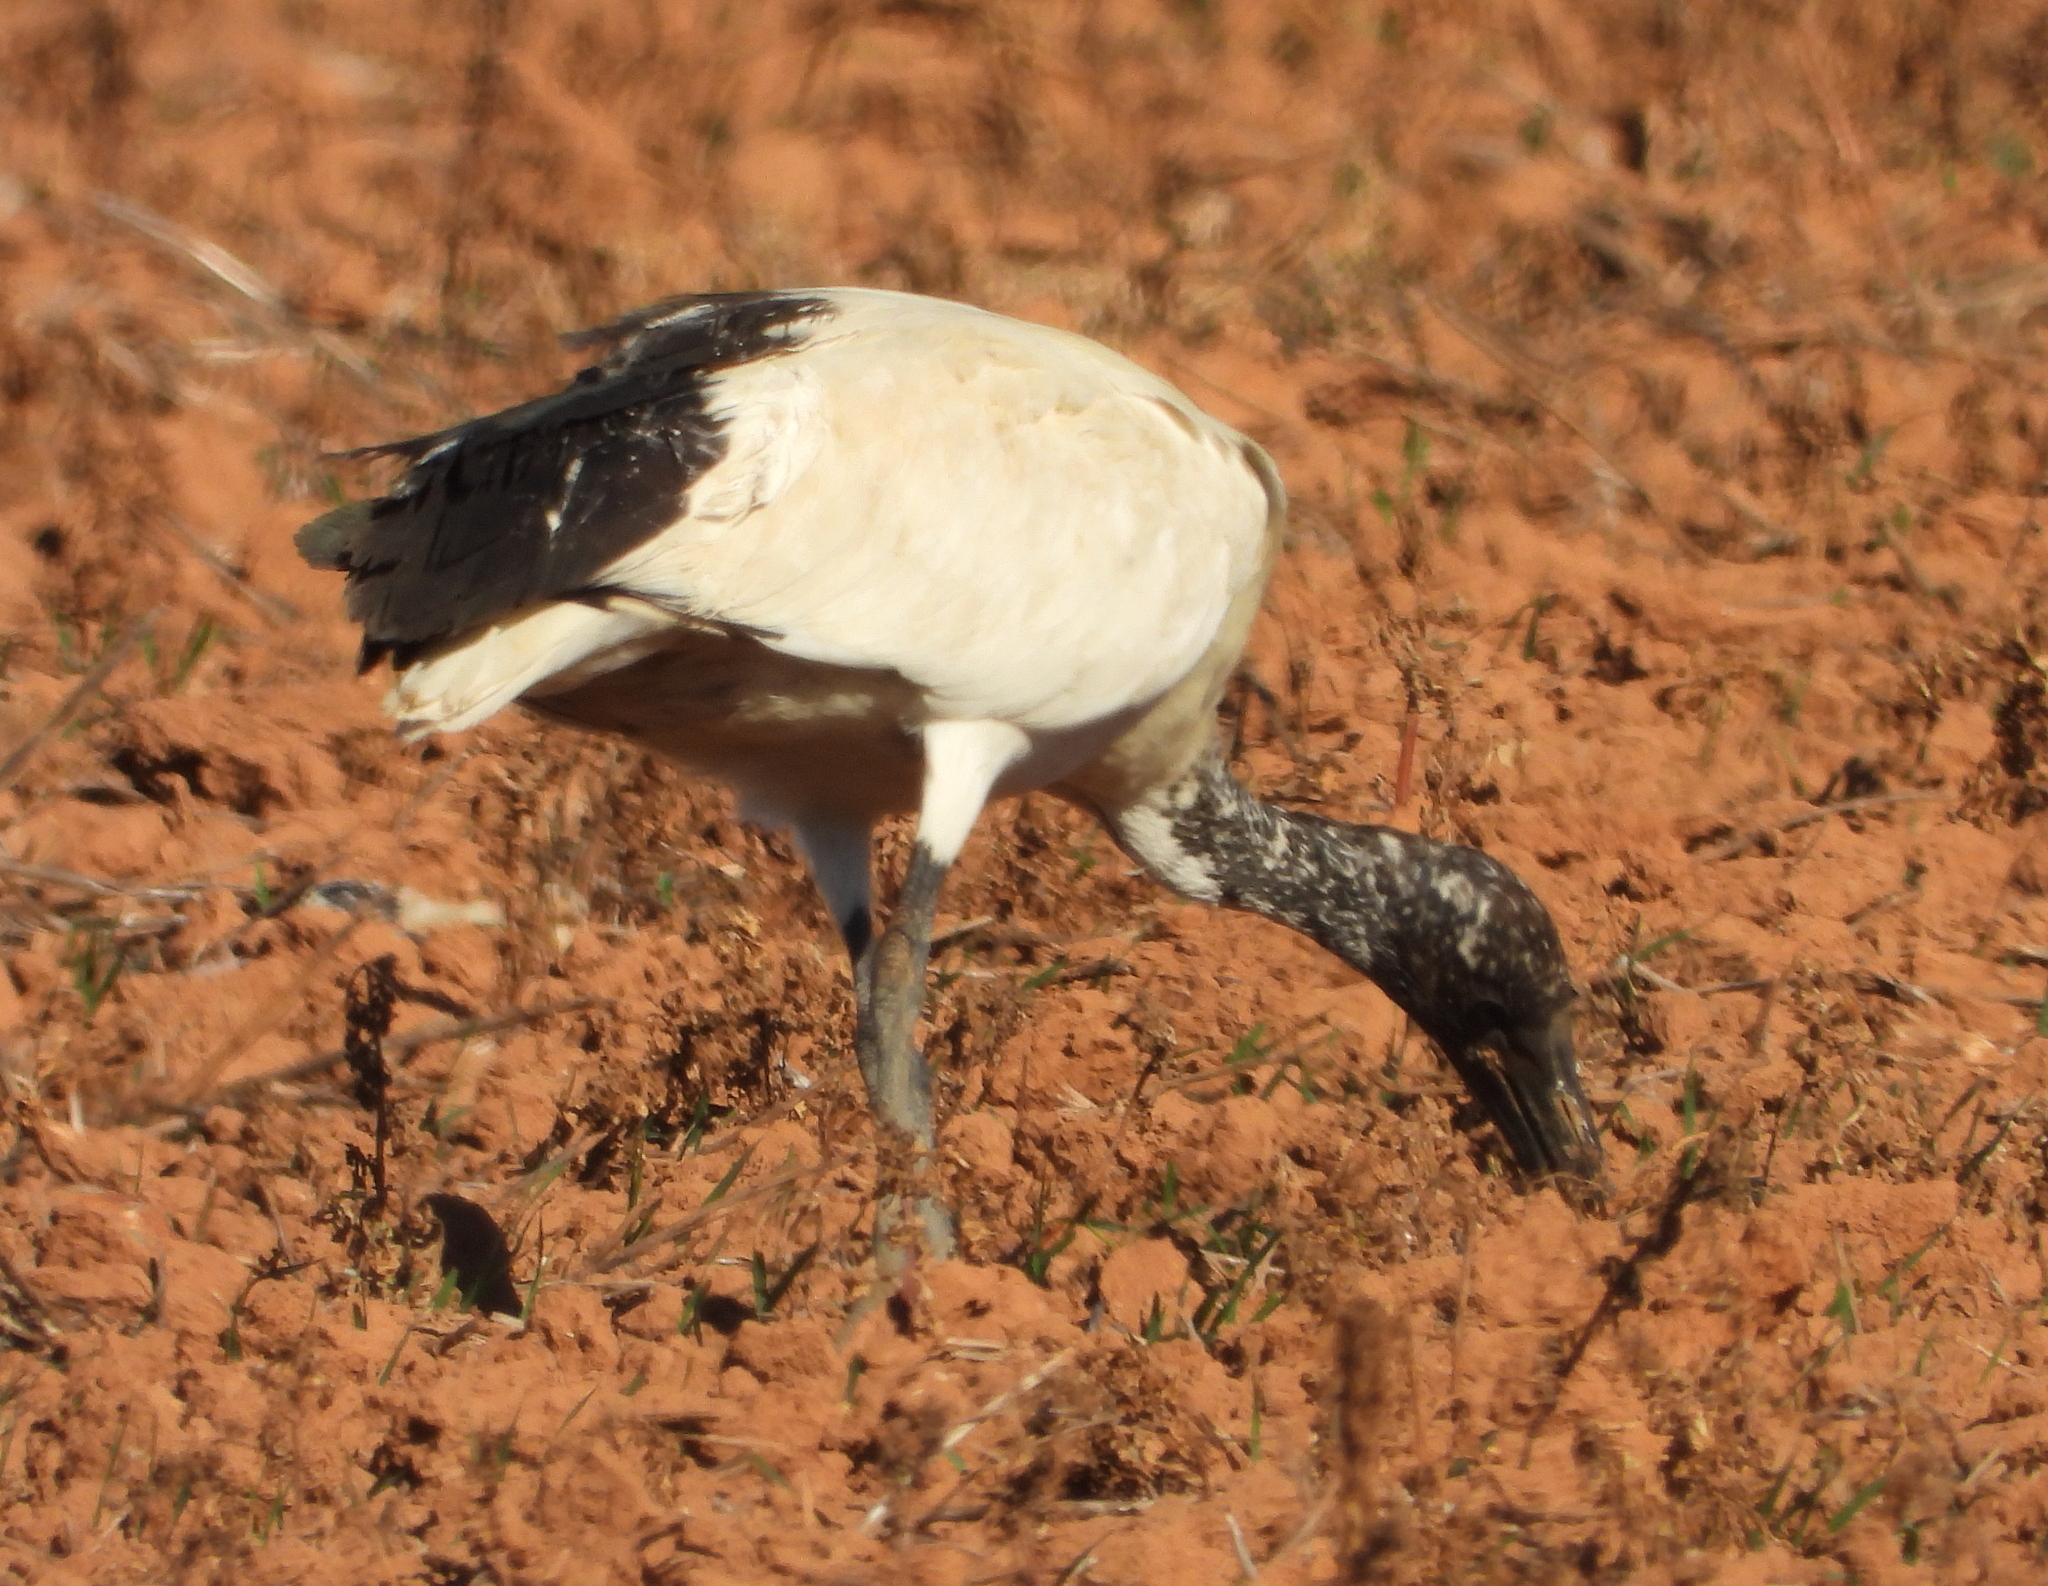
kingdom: Animalia
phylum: Chordata
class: Aves
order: Pelecaniformes
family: Threskiornithidae
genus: Threskiornis
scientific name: Threskiornis aethiopicus
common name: Sacred ibis
